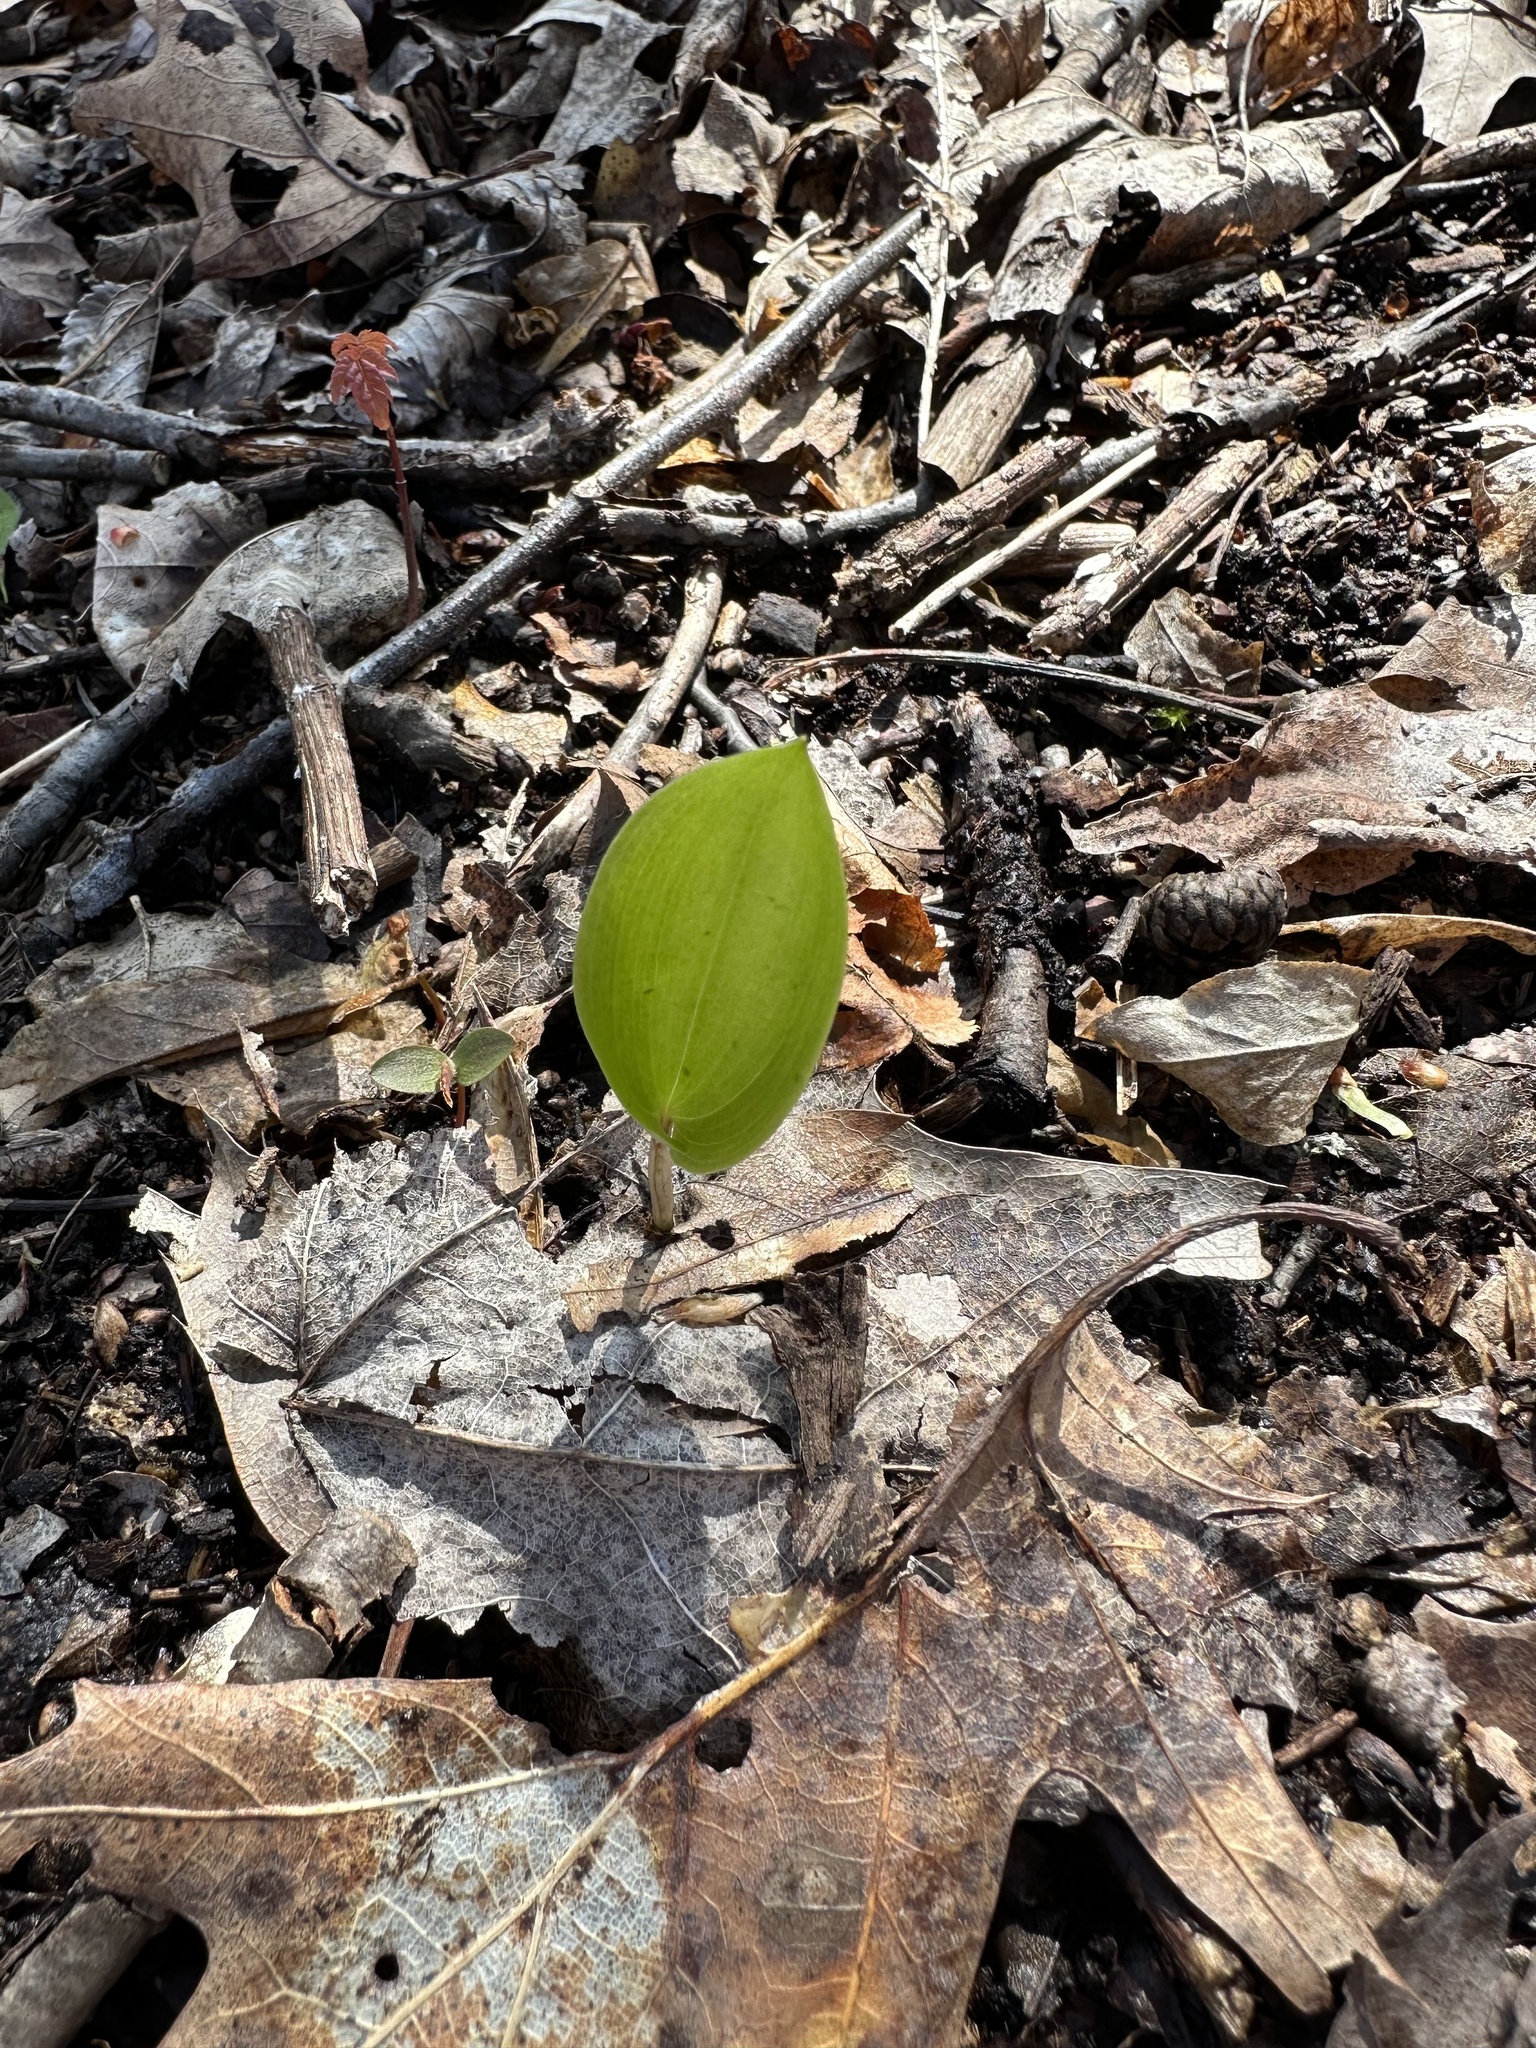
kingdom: Plantae
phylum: Tracheophyta
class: Liliopsida
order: Asparagales
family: Asparagaceae
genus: Maianthemum
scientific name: Maianthemum canadense
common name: False lily-of-the-valley
